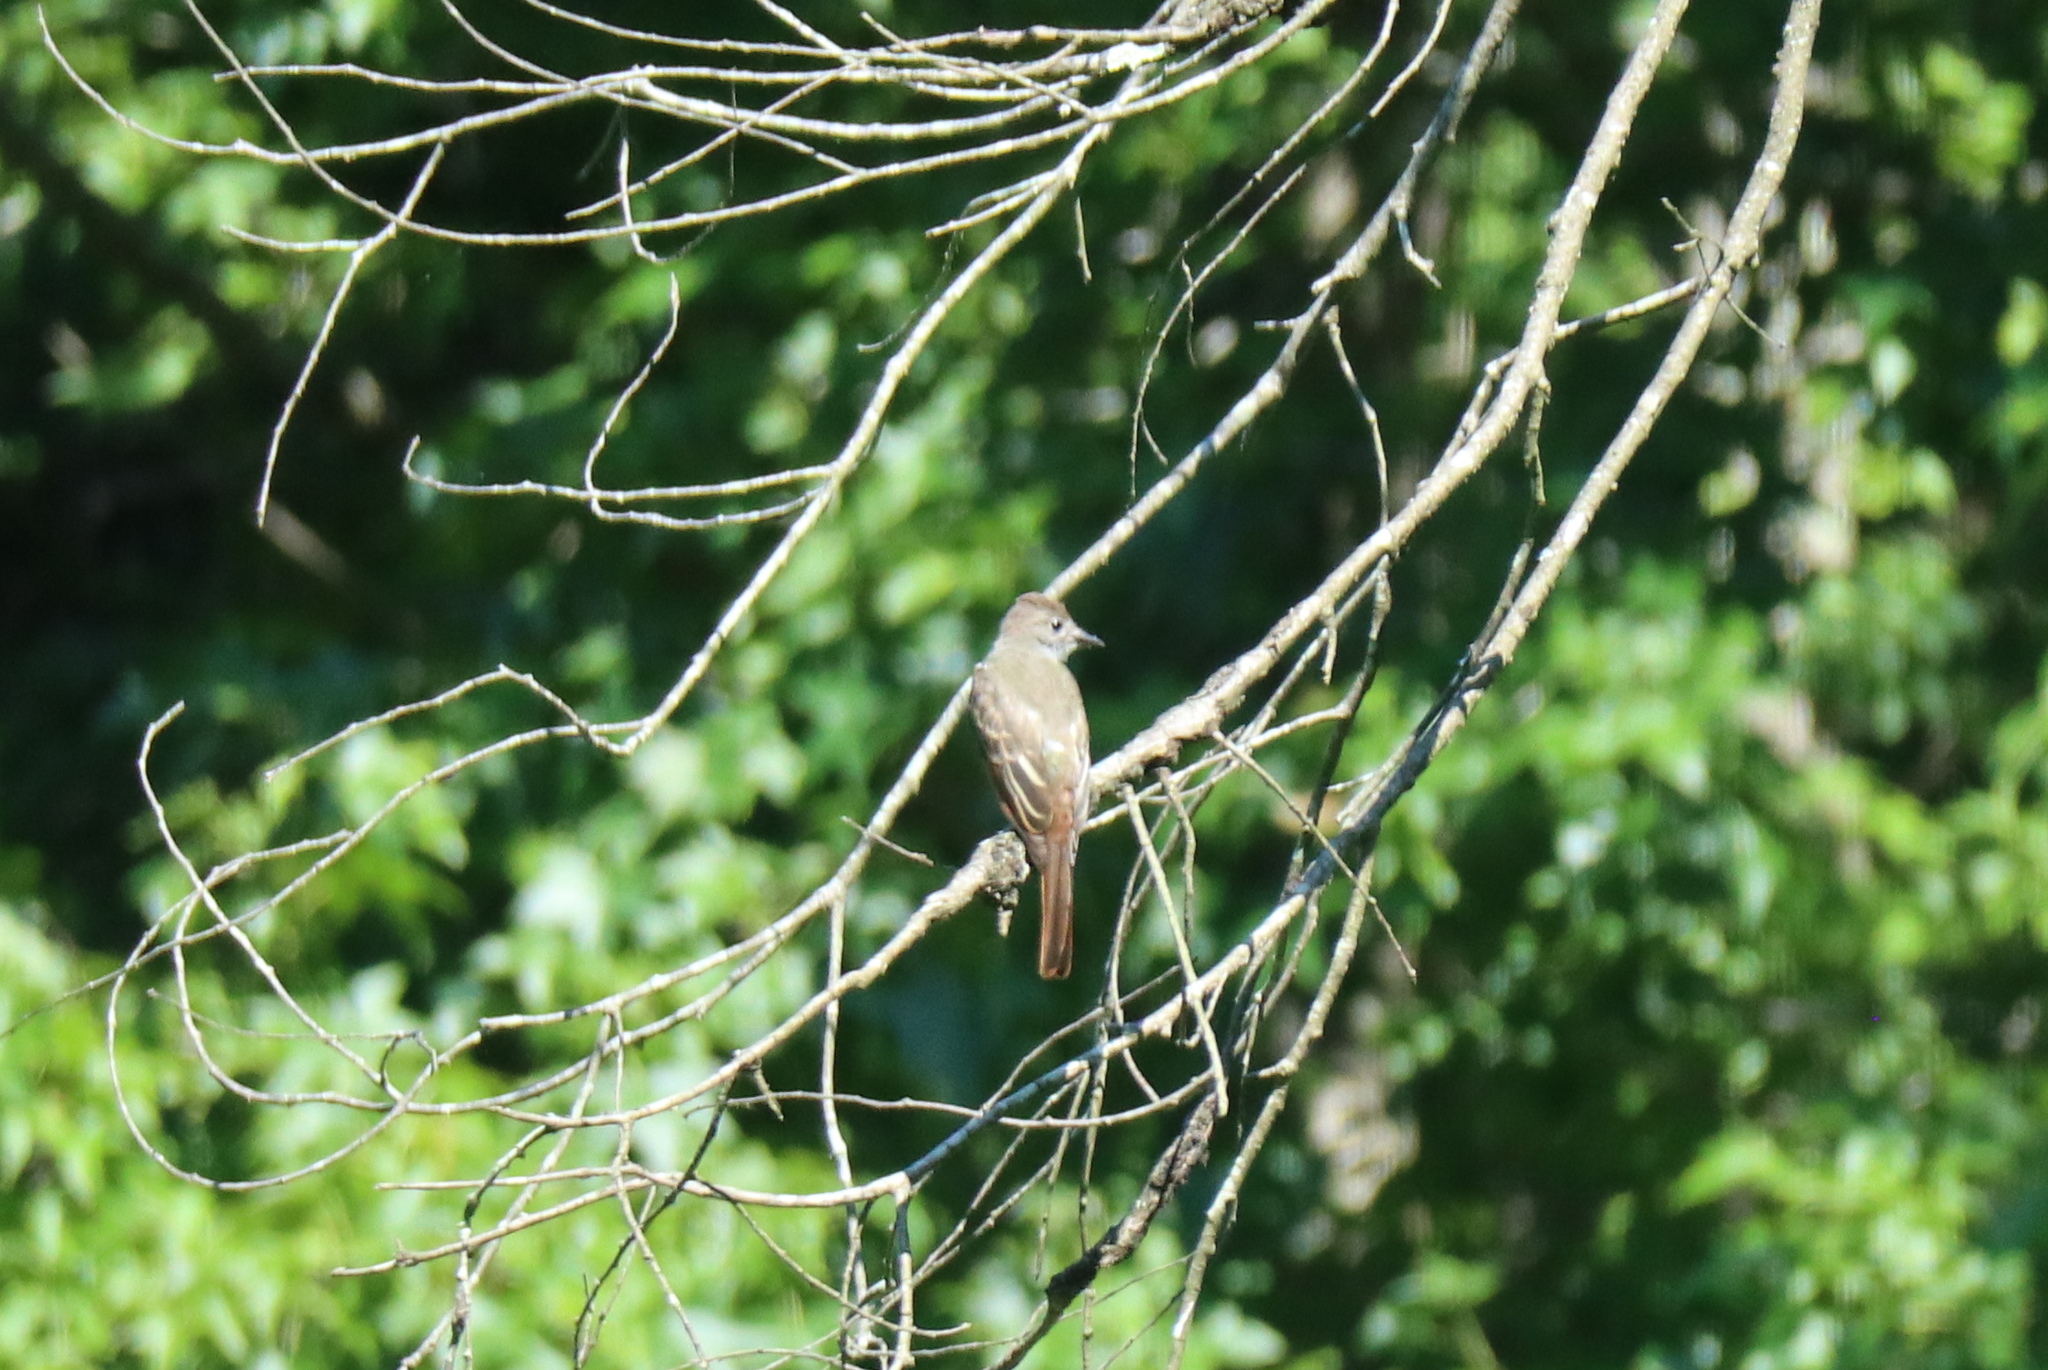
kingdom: Animalia
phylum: Chordata
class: Aves
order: Passeriformes
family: Tyrannidae
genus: Myiarchus
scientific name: Myiarchus crinitus
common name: Great crested flycatcher
